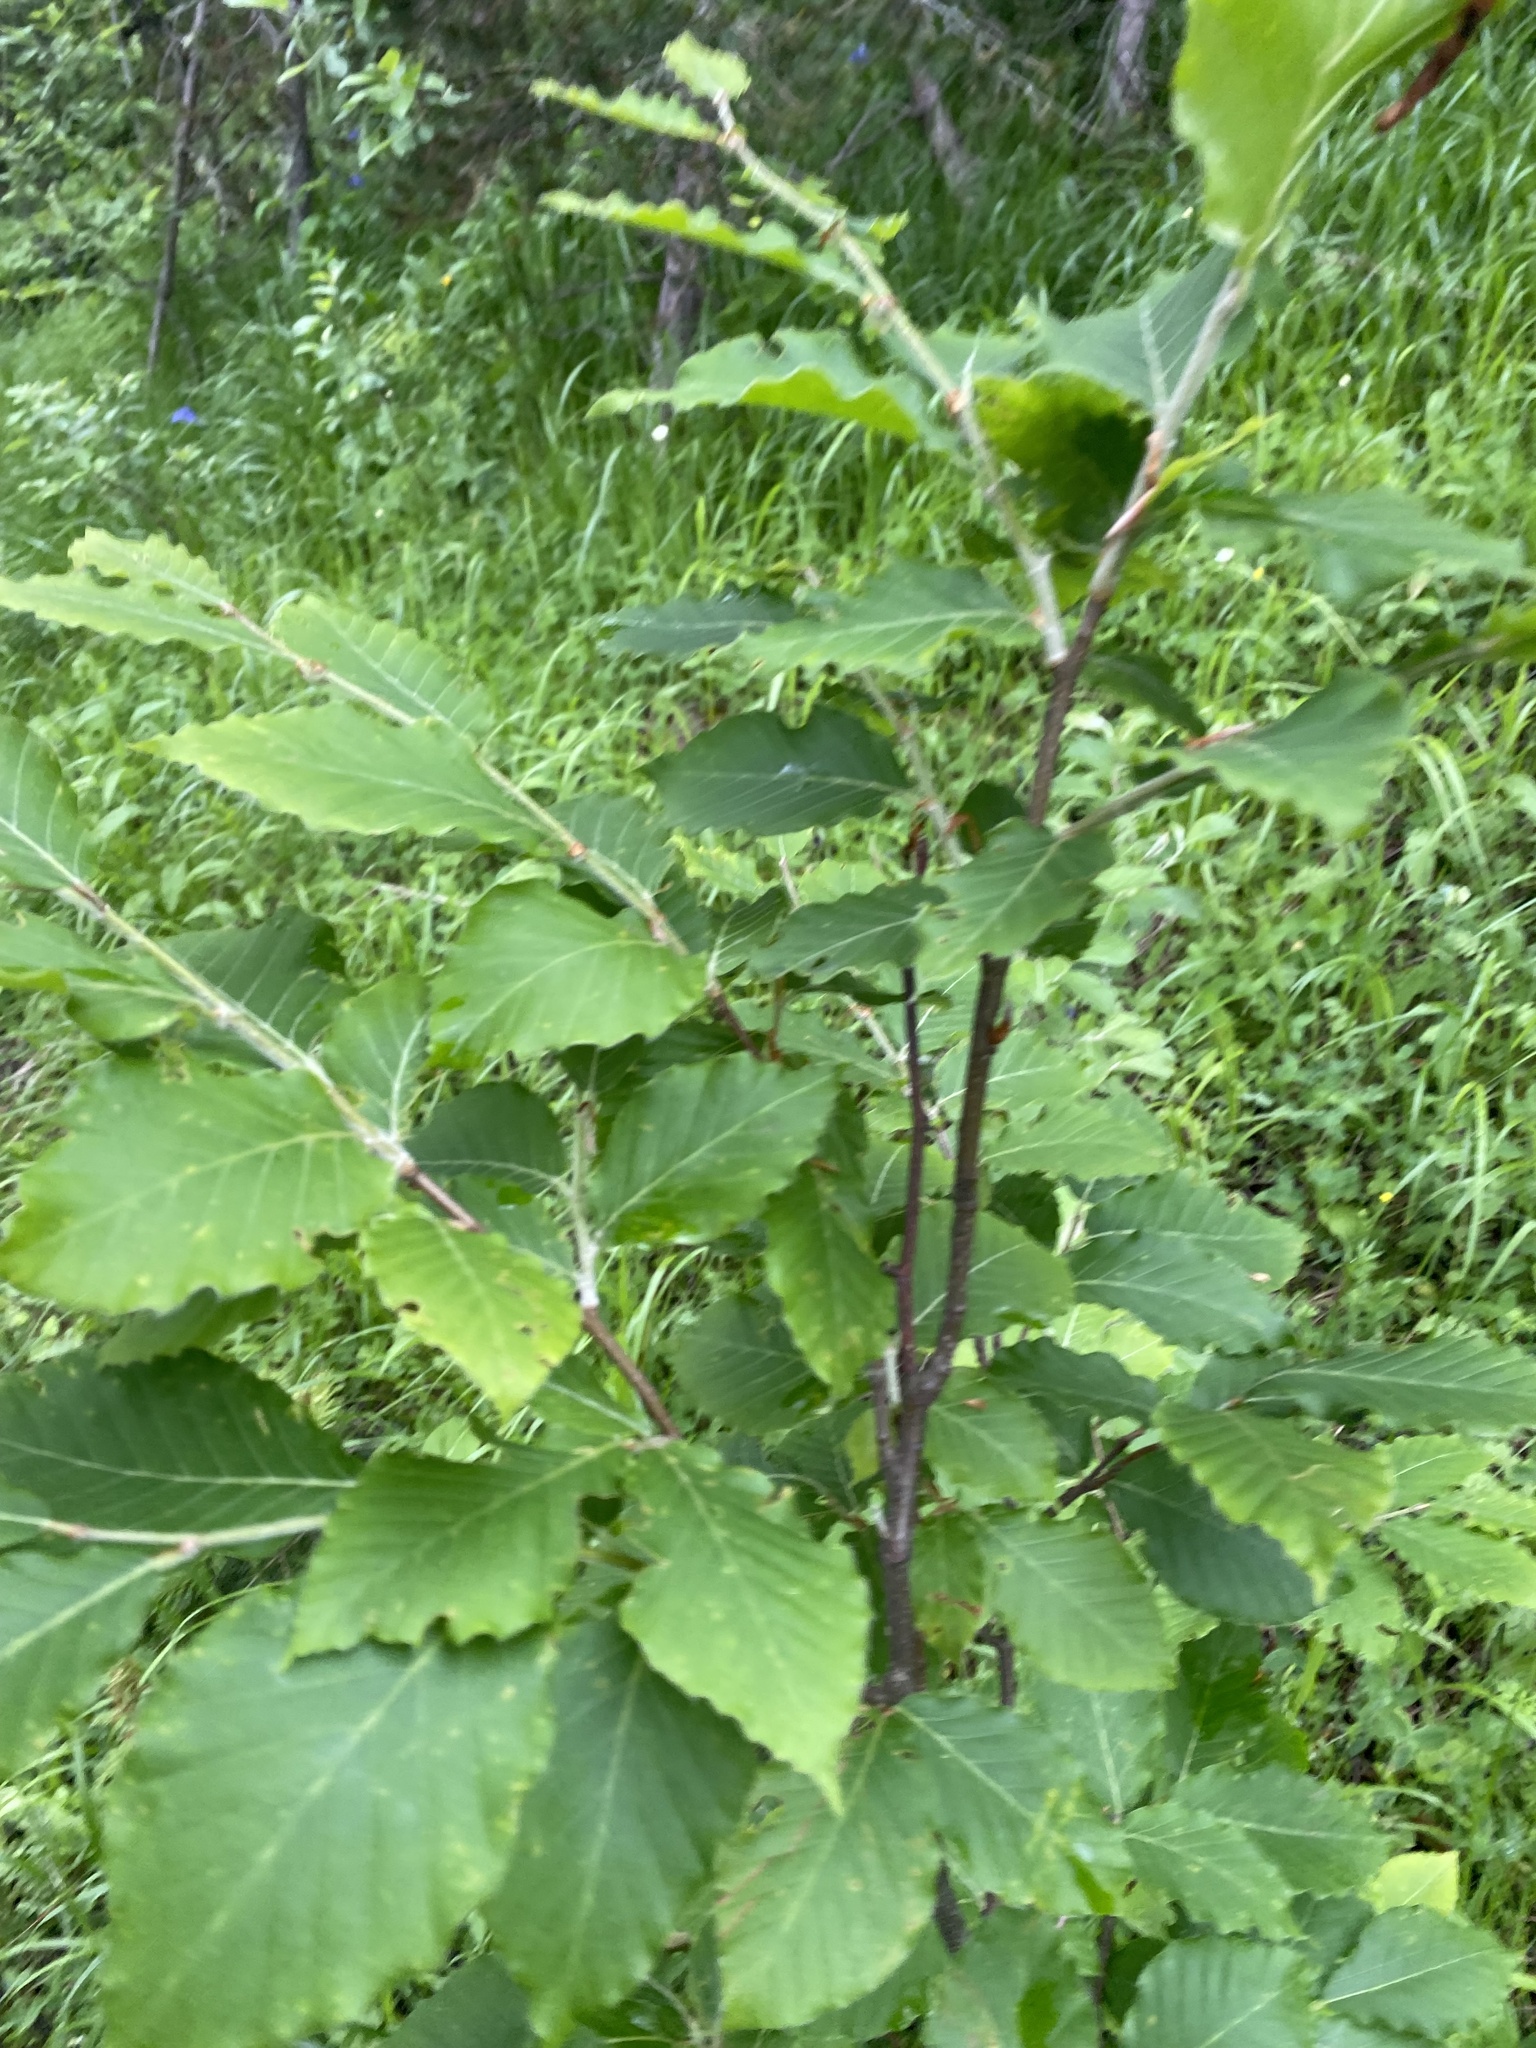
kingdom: Plantae
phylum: Tracheophyta
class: Magnoliopsida
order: Fagales
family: Fagaceae
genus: Fagus
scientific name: Fagus orientalis
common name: Oriental beech
